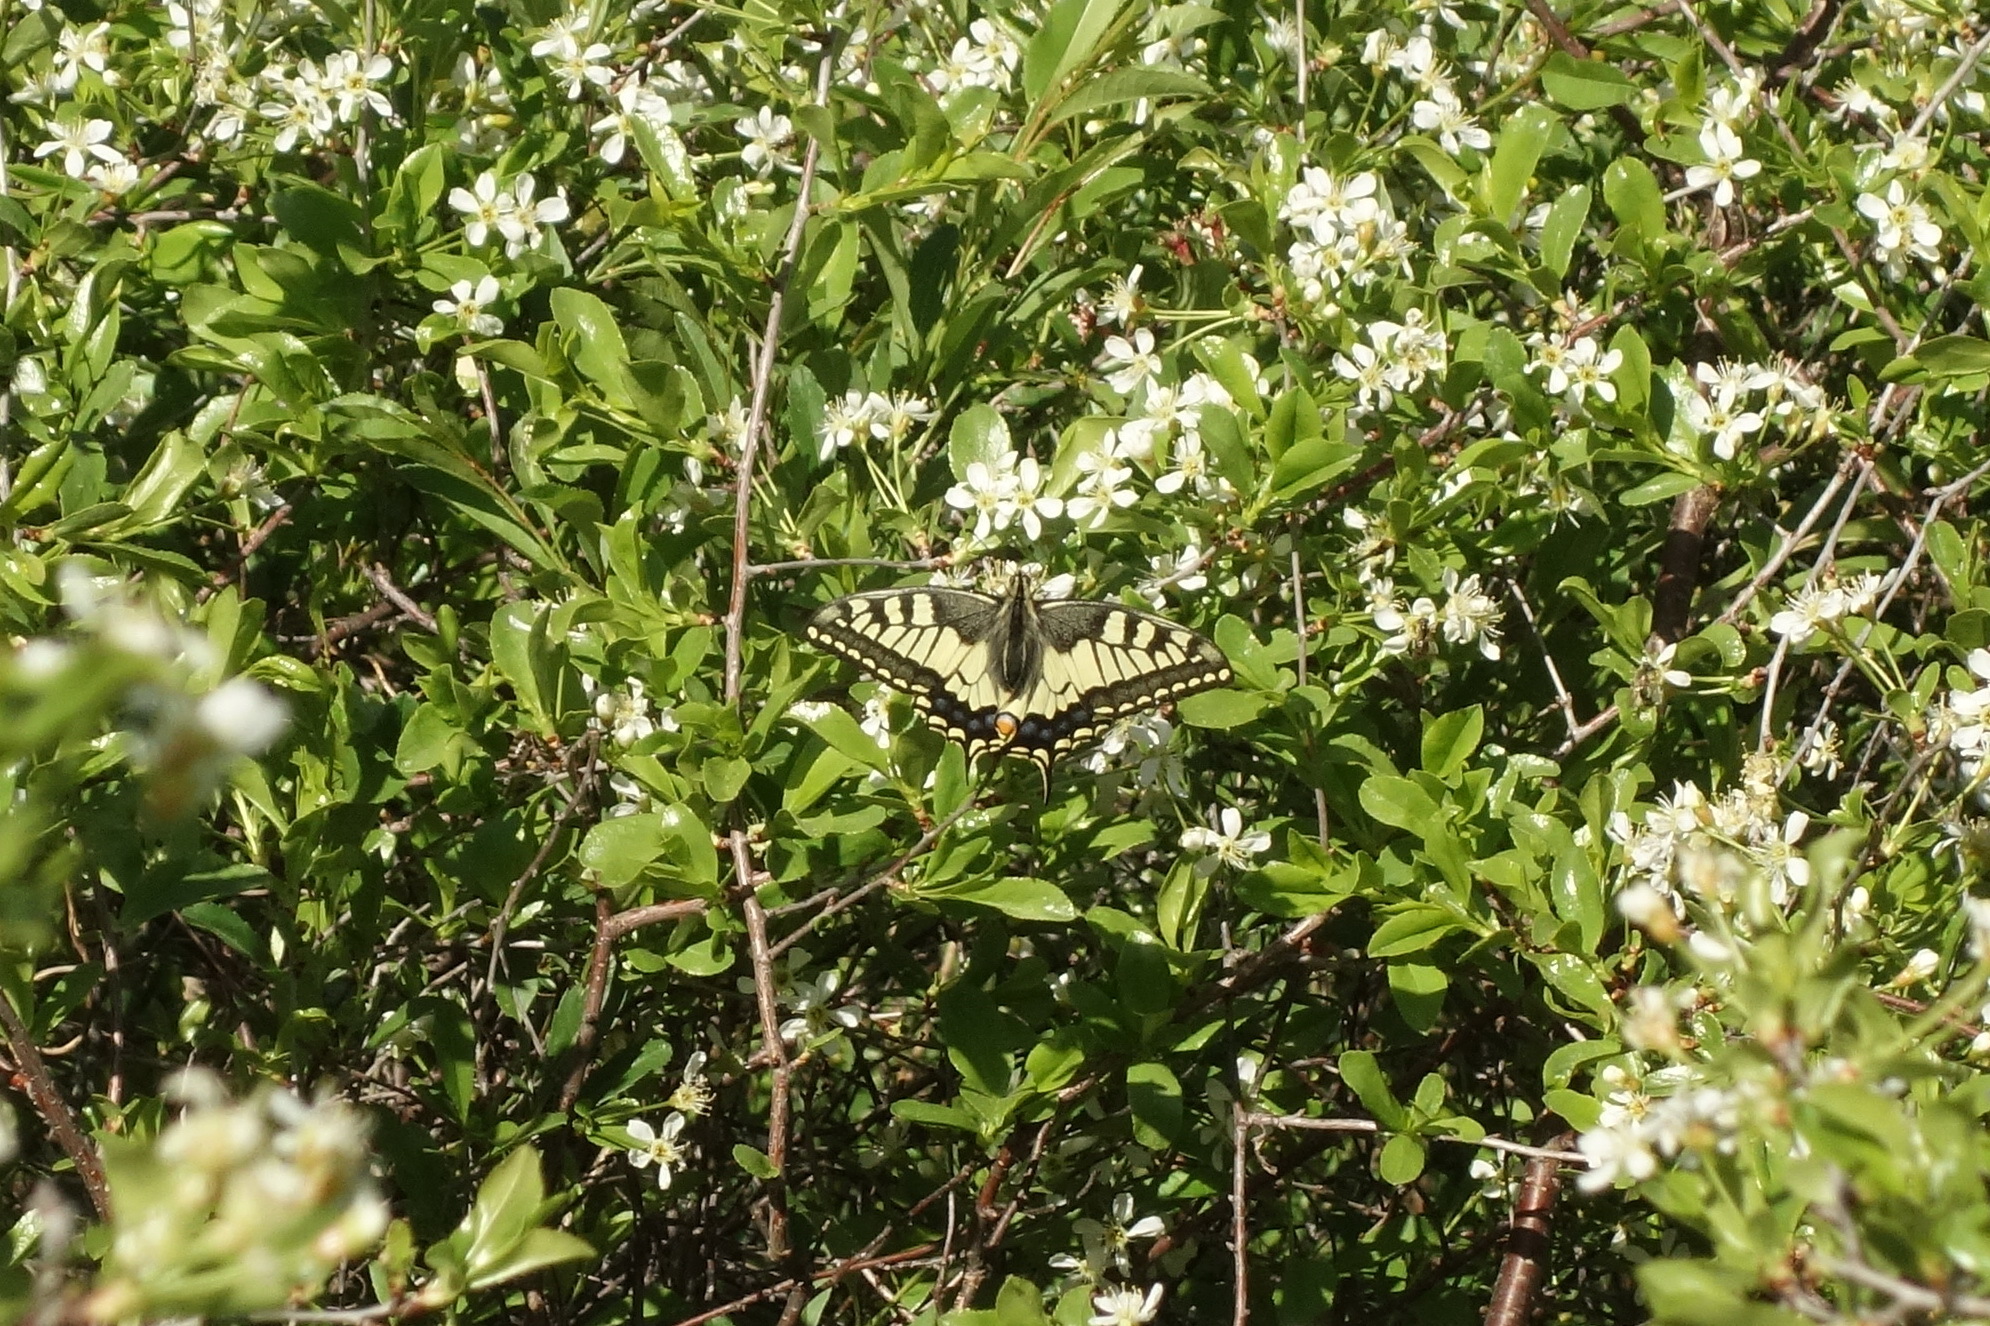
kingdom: Animalia
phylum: Arthropoda
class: Insecta
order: Lepidoptera
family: Papilionidae
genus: Papilio
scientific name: Papilio machaon
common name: Swallowtail
